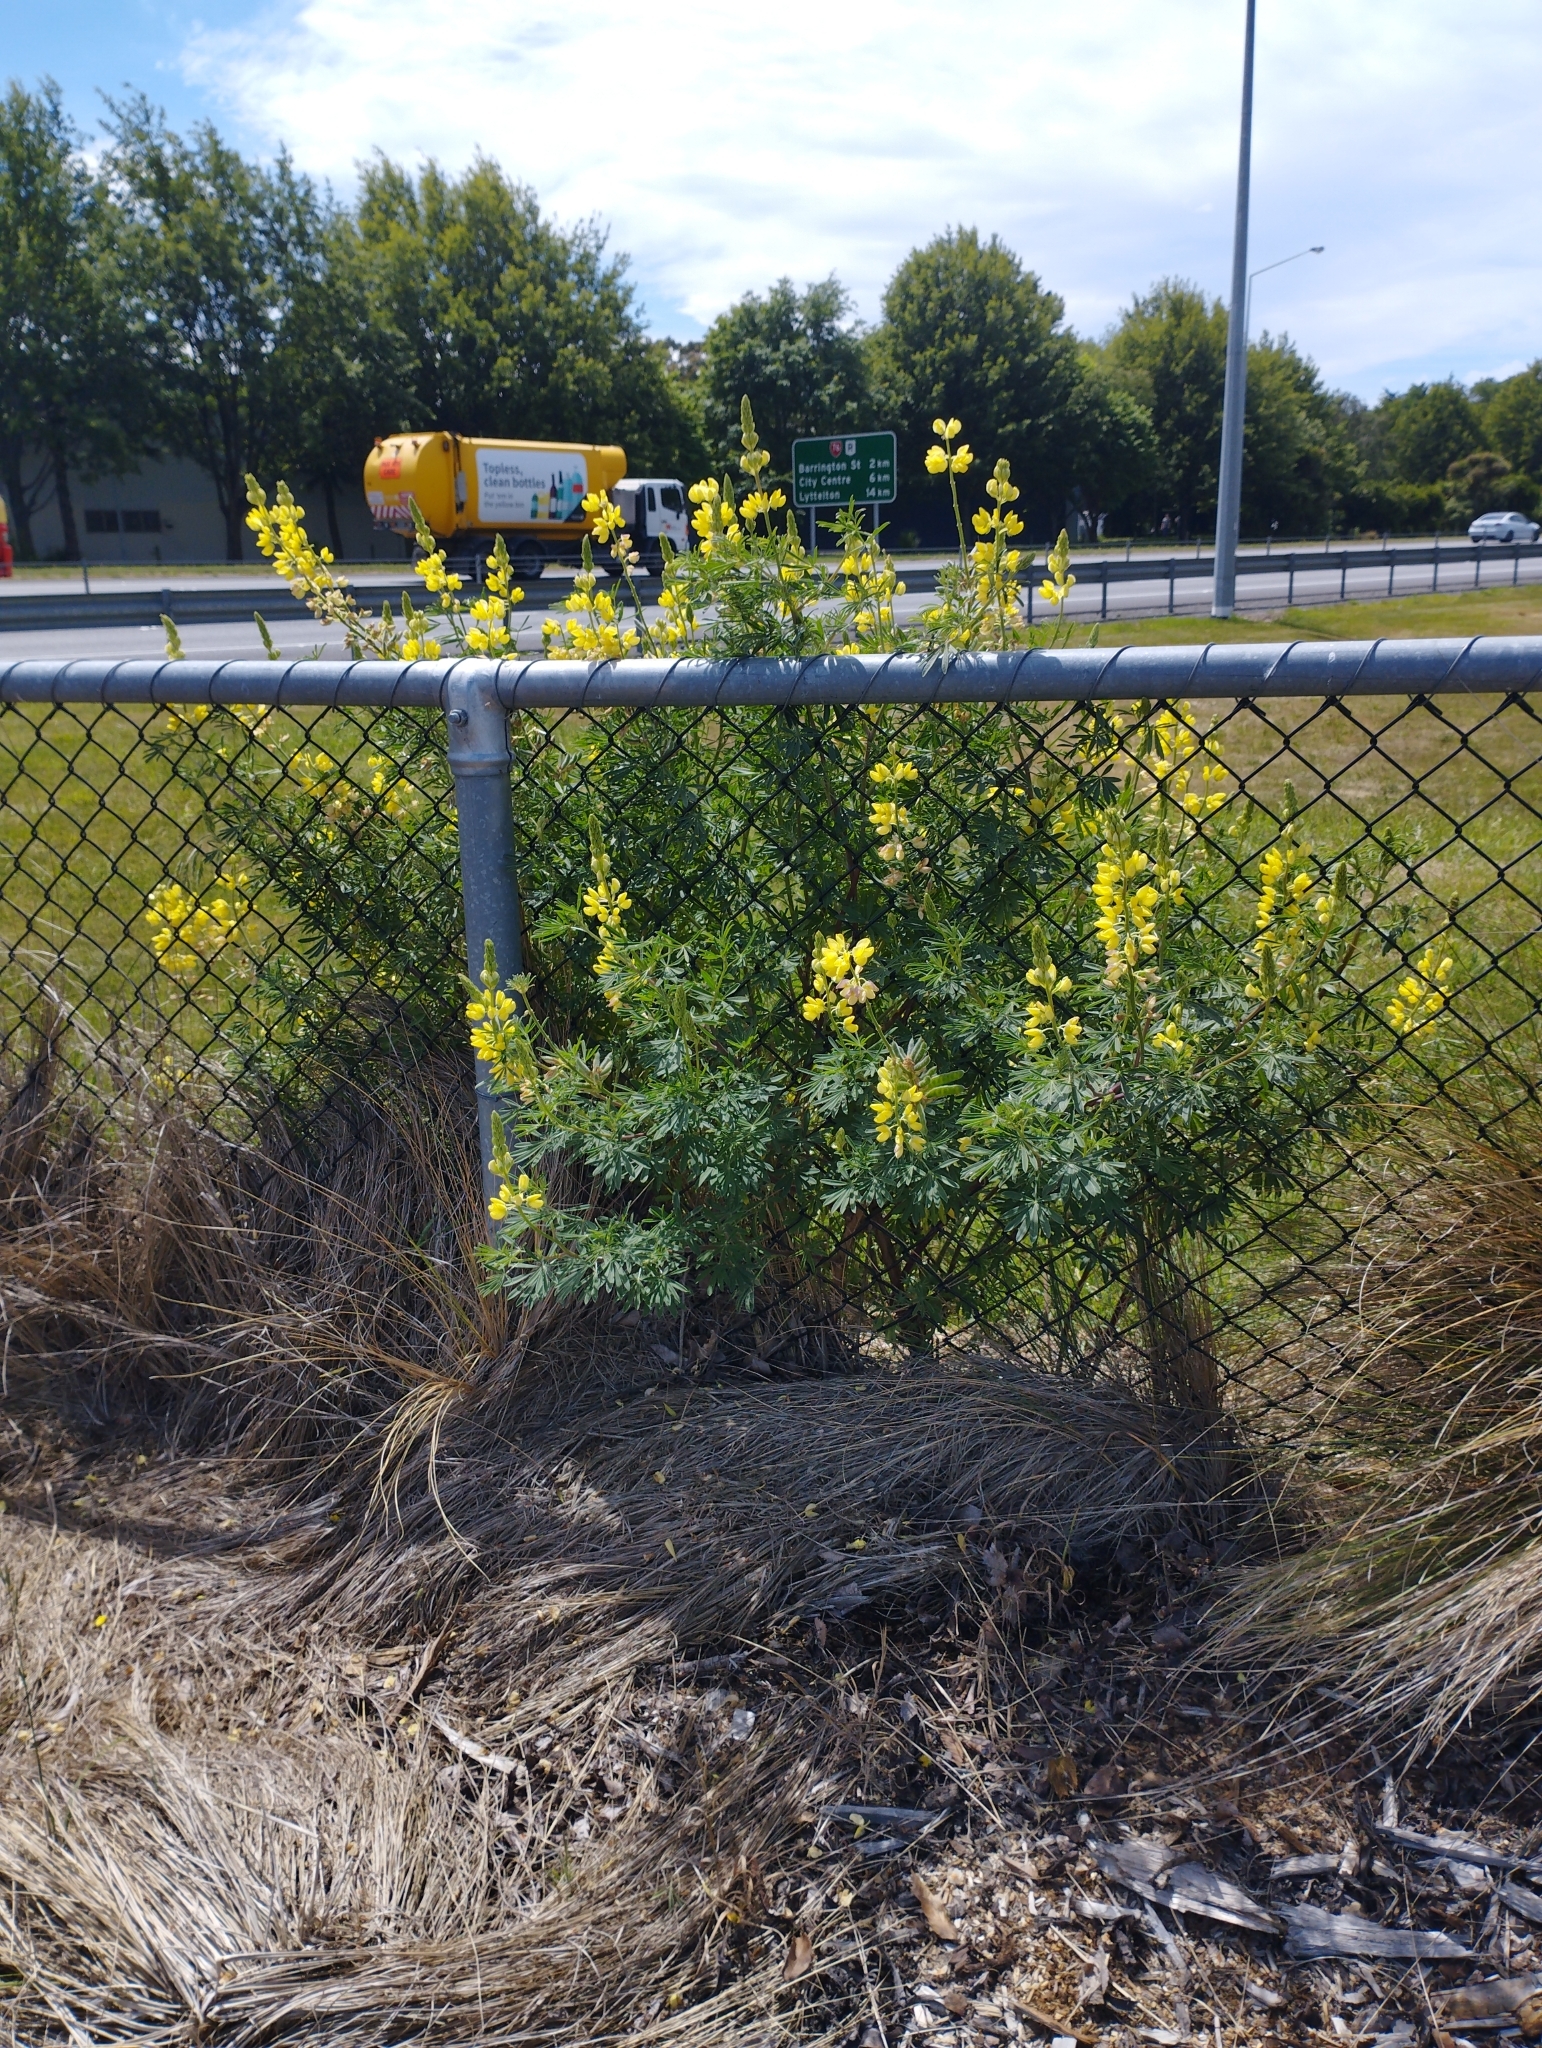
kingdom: Plantae
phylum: Tracheophyta
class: Magnoliopsida
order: Fabales
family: Fabaceae
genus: Lupinus
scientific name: Lupinus arboreus
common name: Yellow bush lupine
